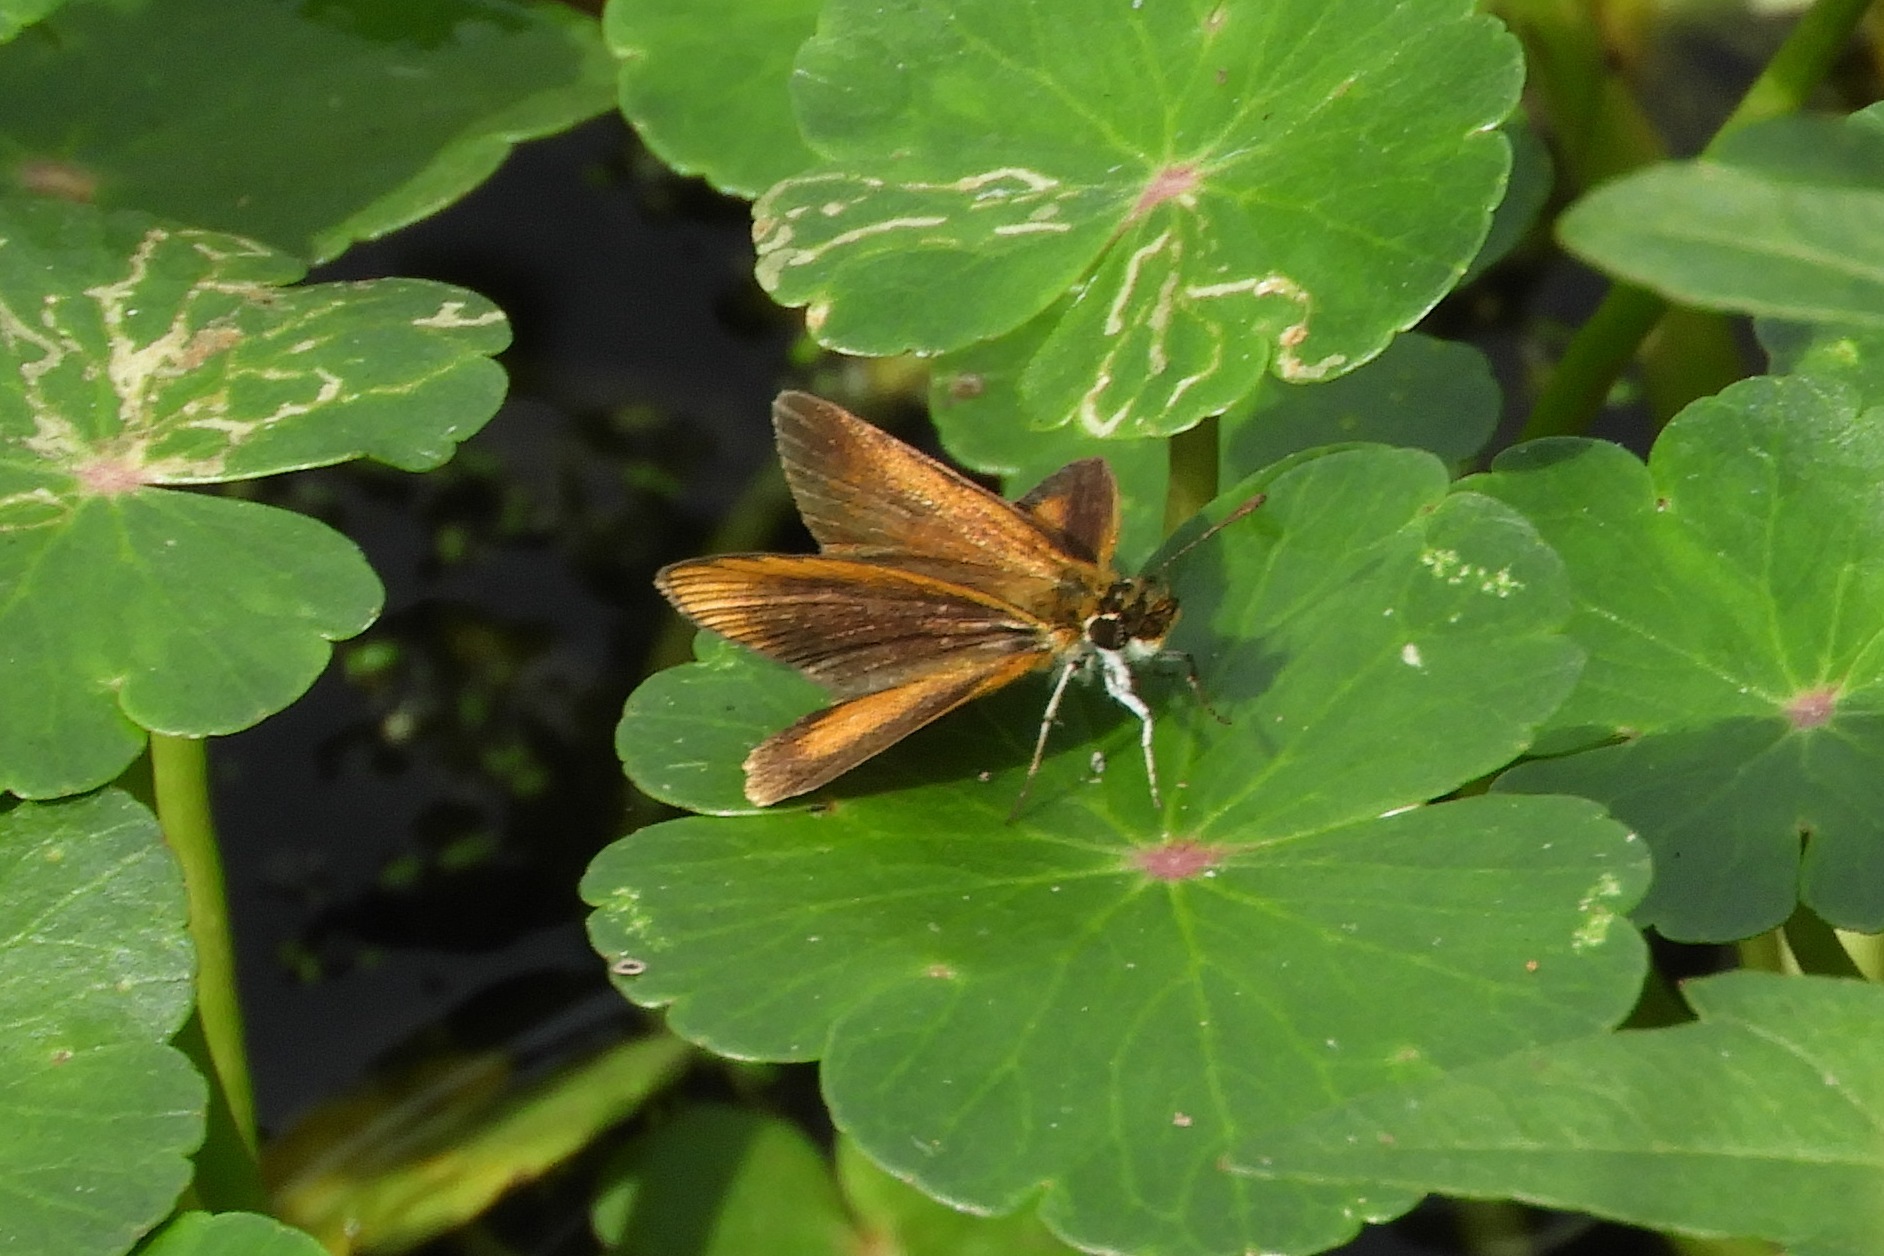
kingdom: Animalia
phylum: Arthropoda
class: Insecta
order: Lepidoptera
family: Hesperiidae
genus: Ancyloxypha
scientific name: Ancyloxypha numitor
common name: Least skipper
